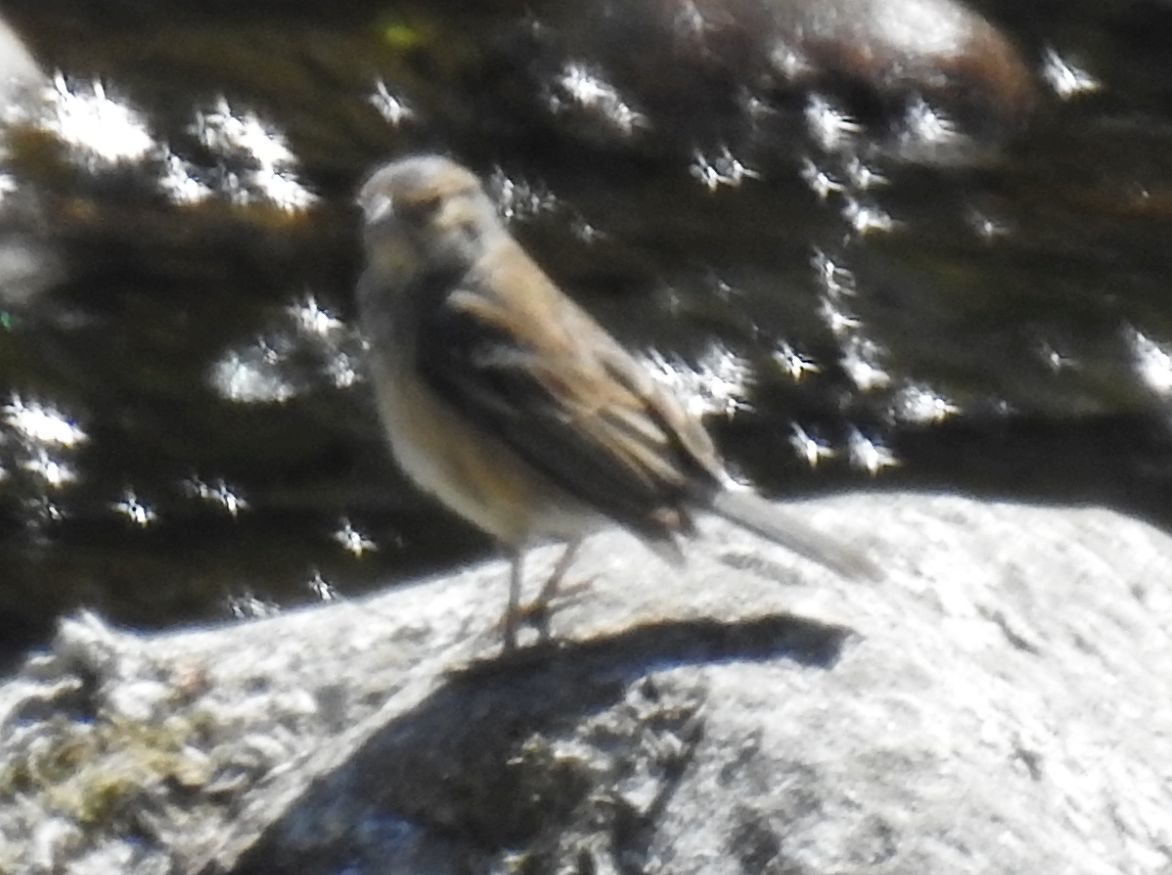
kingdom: Animalia
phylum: Chordata
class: Aves
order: Passeriformes
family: Passeridae
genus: Passer
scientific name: Passer domesticus
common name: House sparrow
